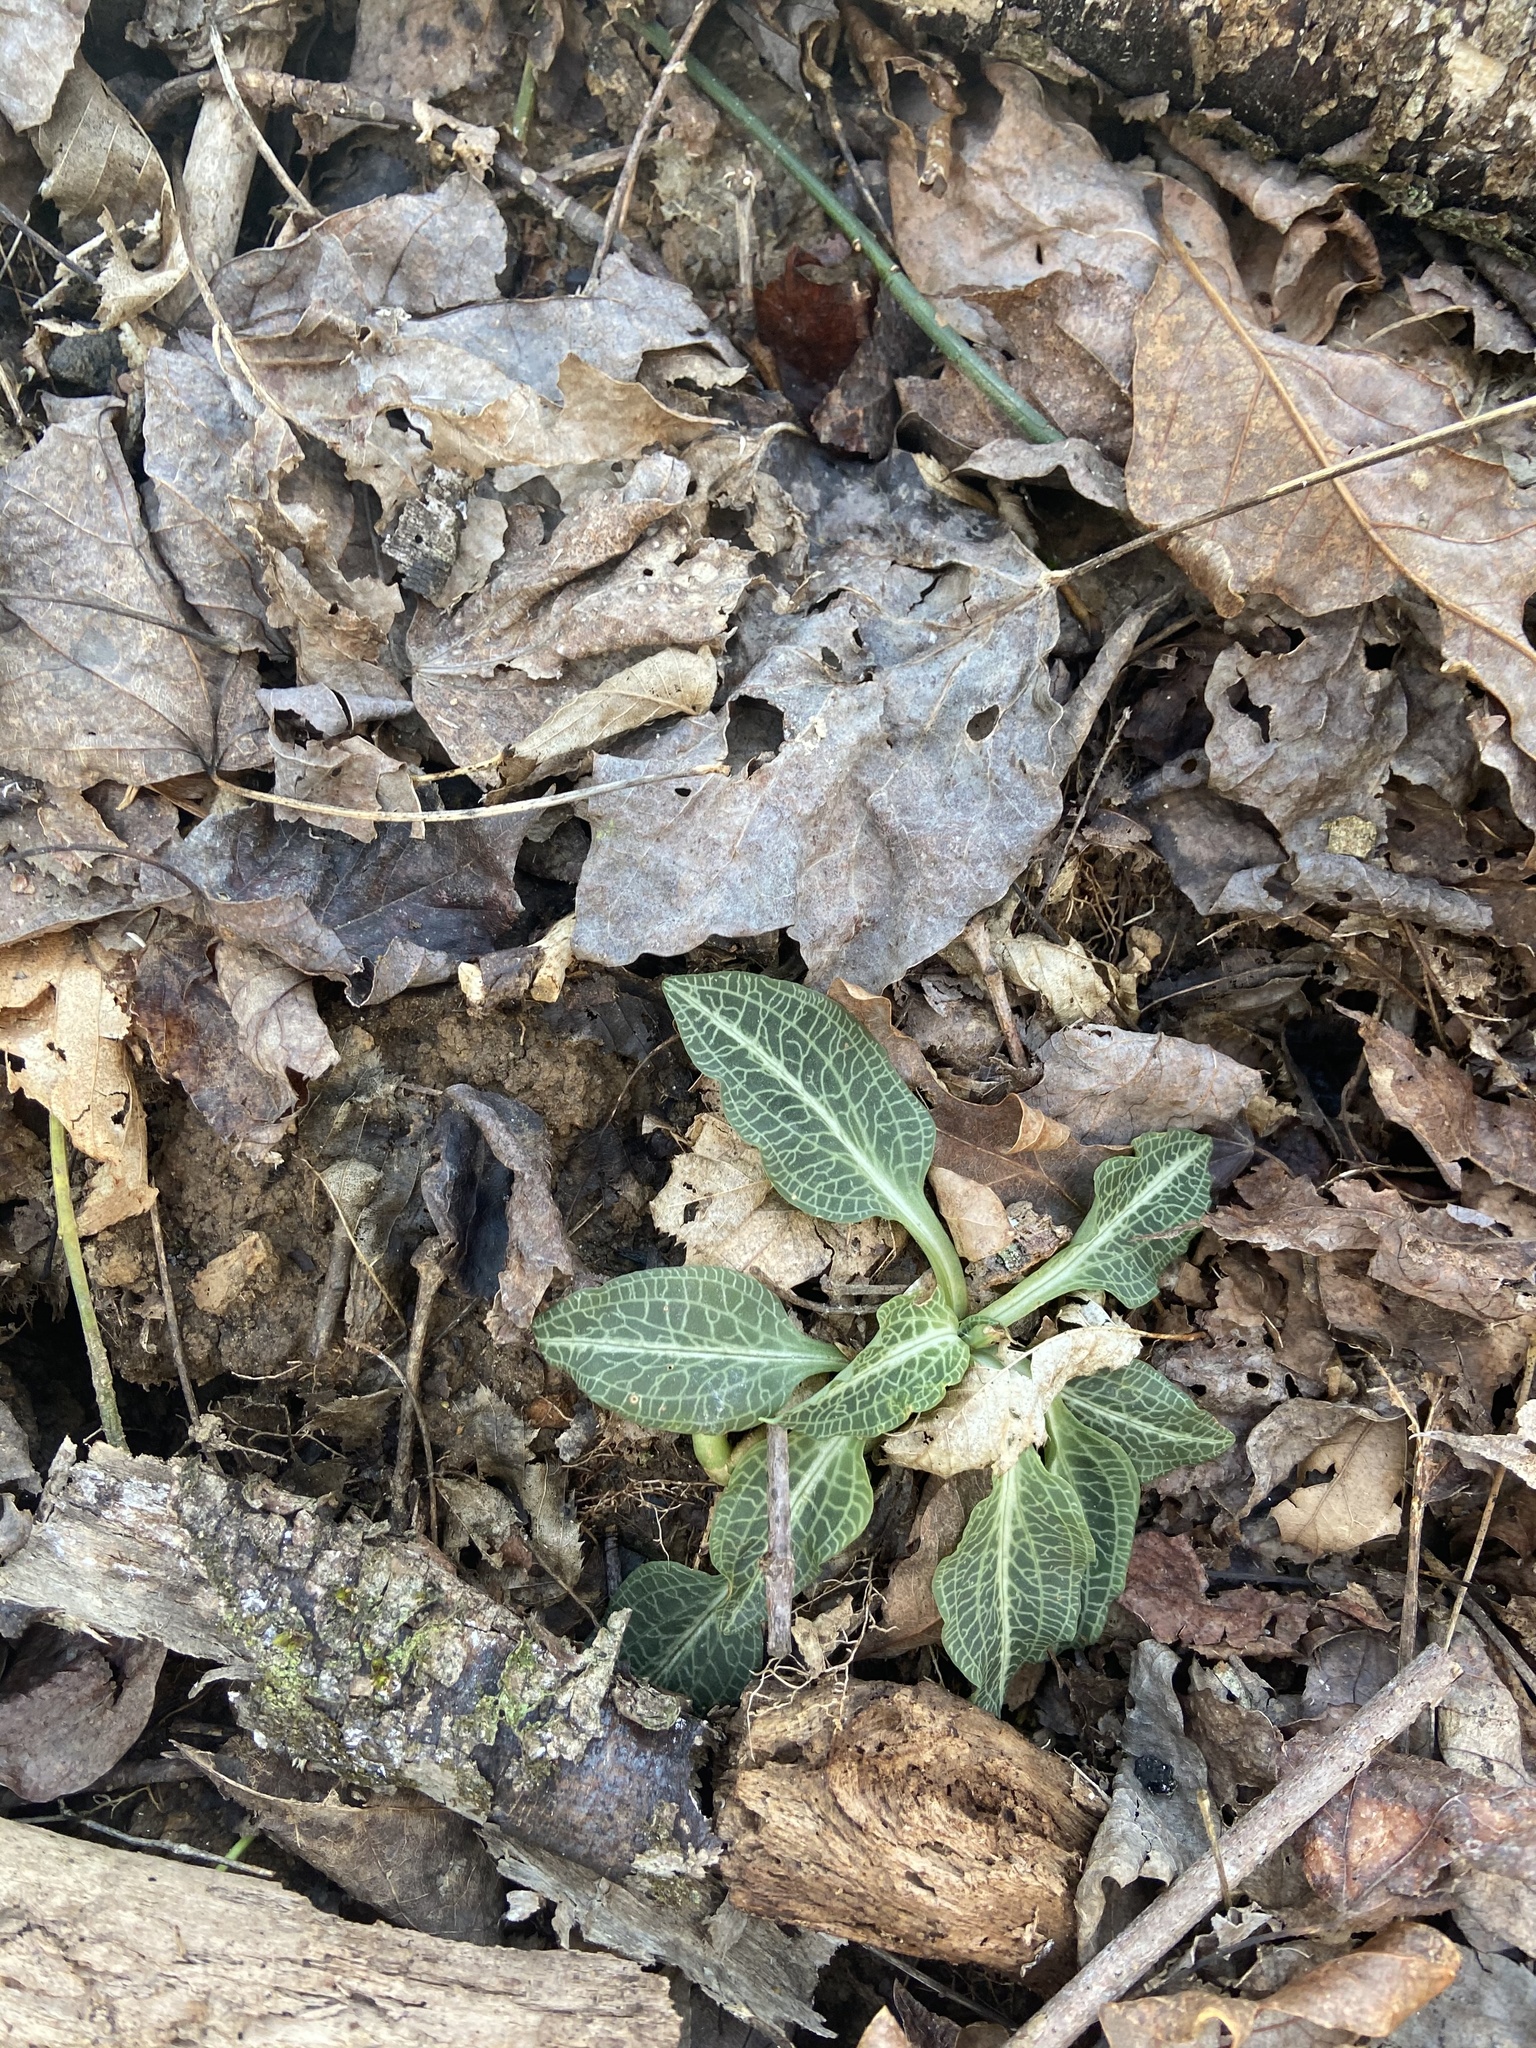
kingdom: Plantae
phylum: Tracheophyta
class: Liliopsida
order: Asparagales
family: Orchidaceae
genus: Goodyera
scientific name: Goodyera pubescens
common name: Downy rattlesnake-plantain
